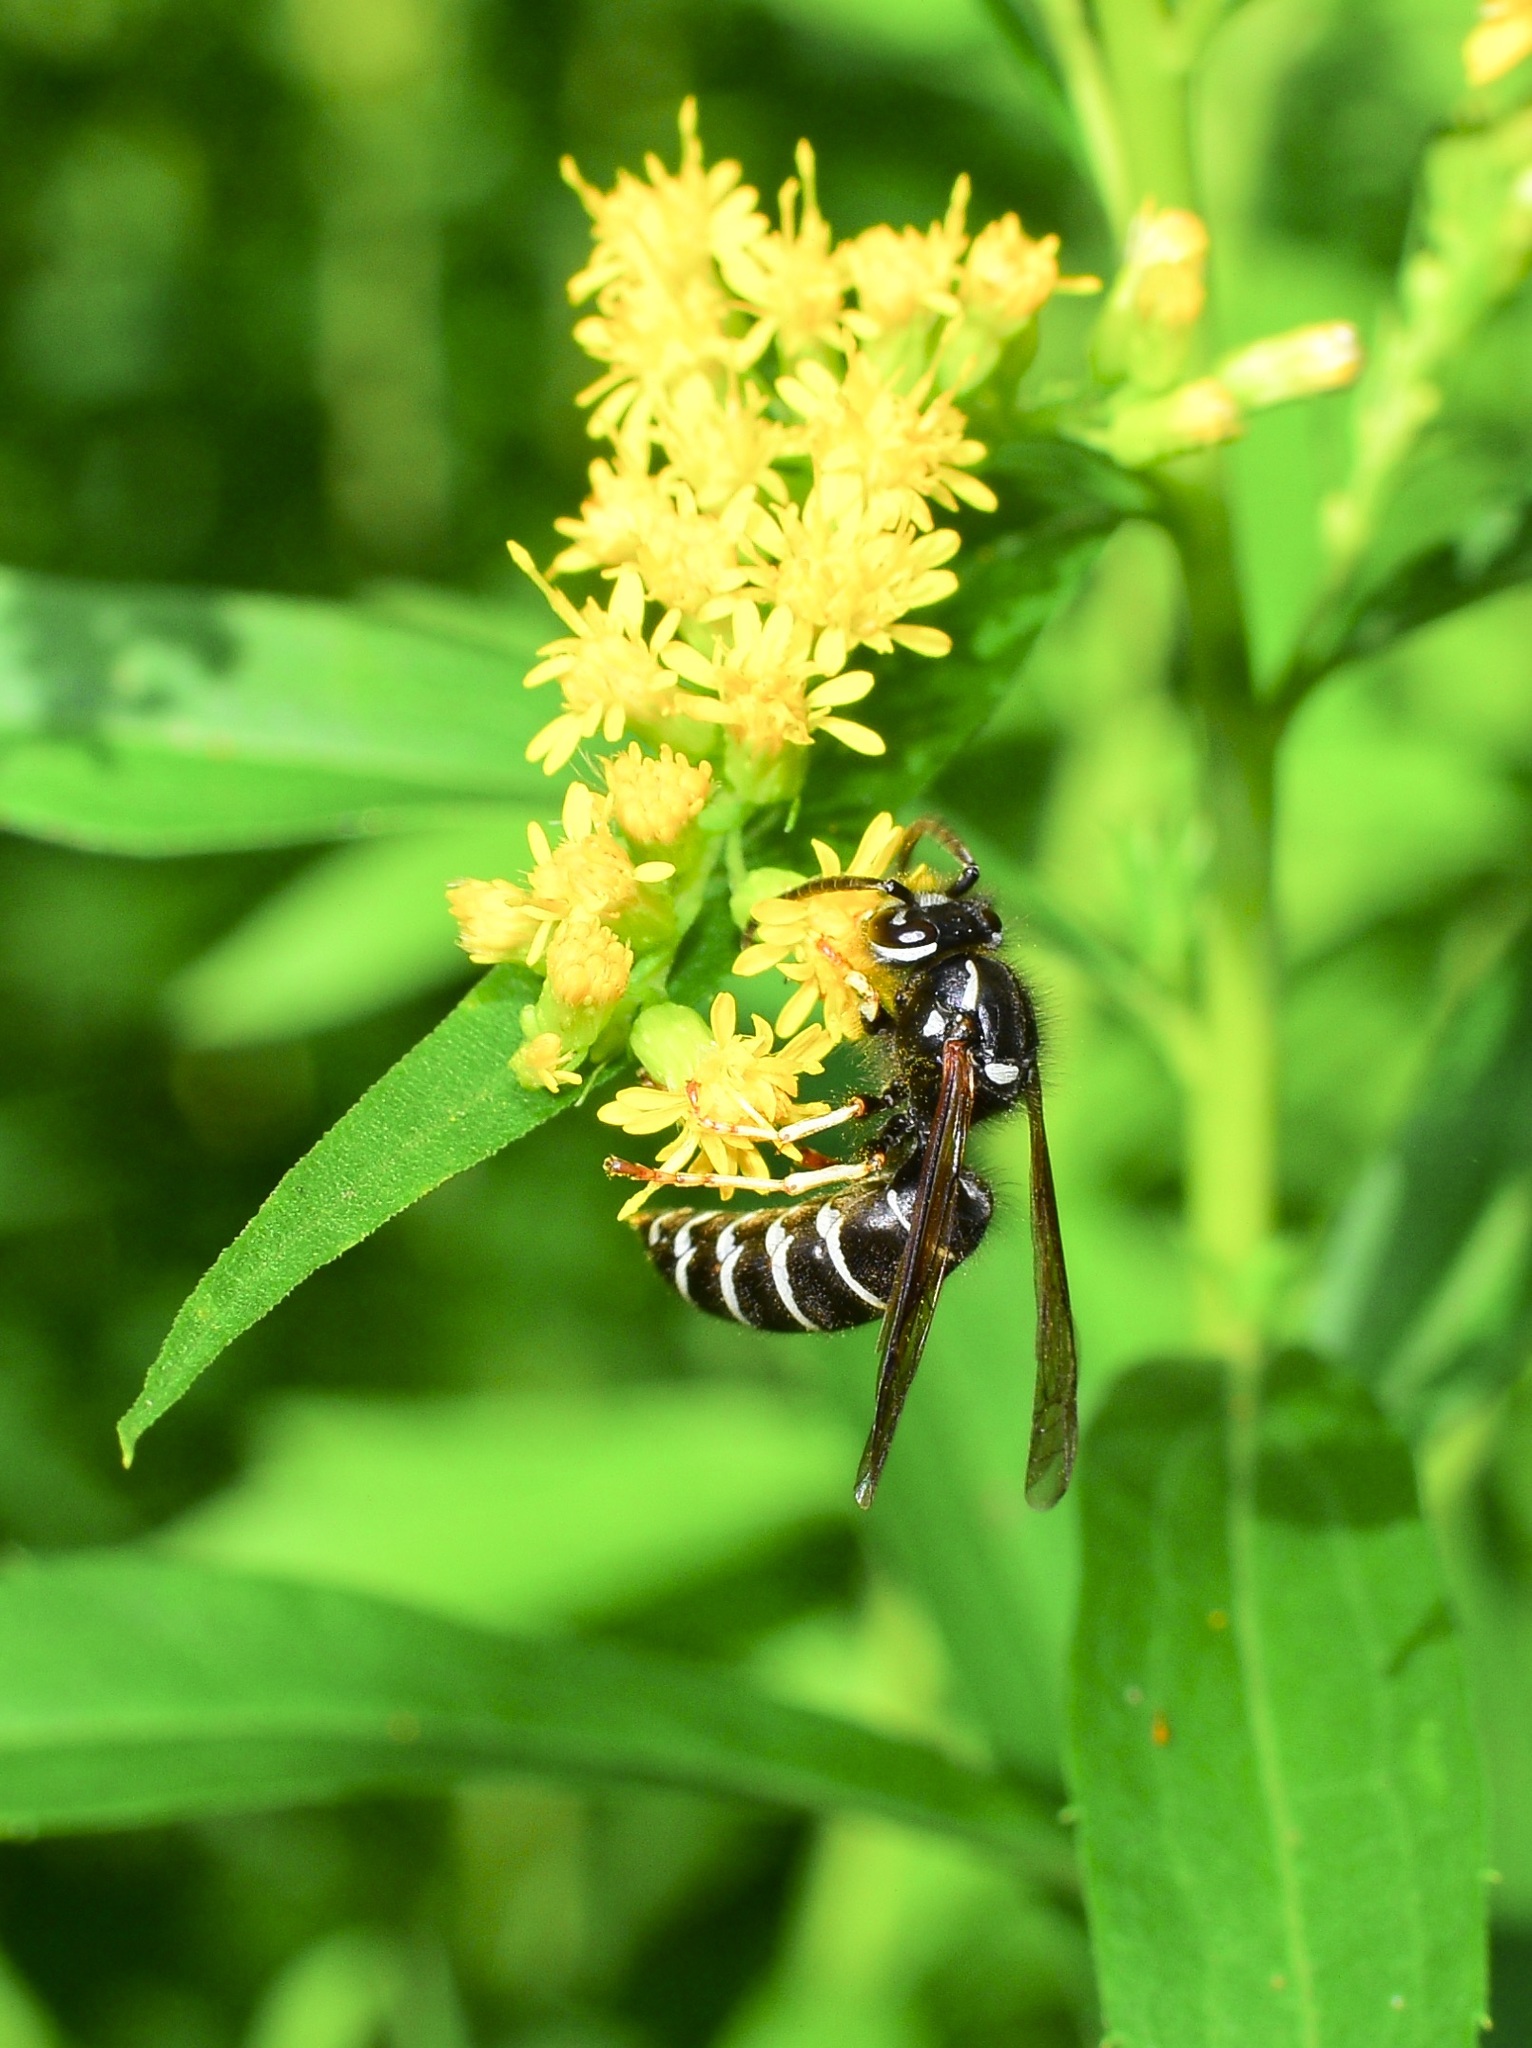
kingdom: Animalia
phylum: Arthropoda
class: Insecta
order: Hymenoptera
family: Vespidae
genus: Vespula
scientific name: Vespula consobrina
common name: Blackjacket
